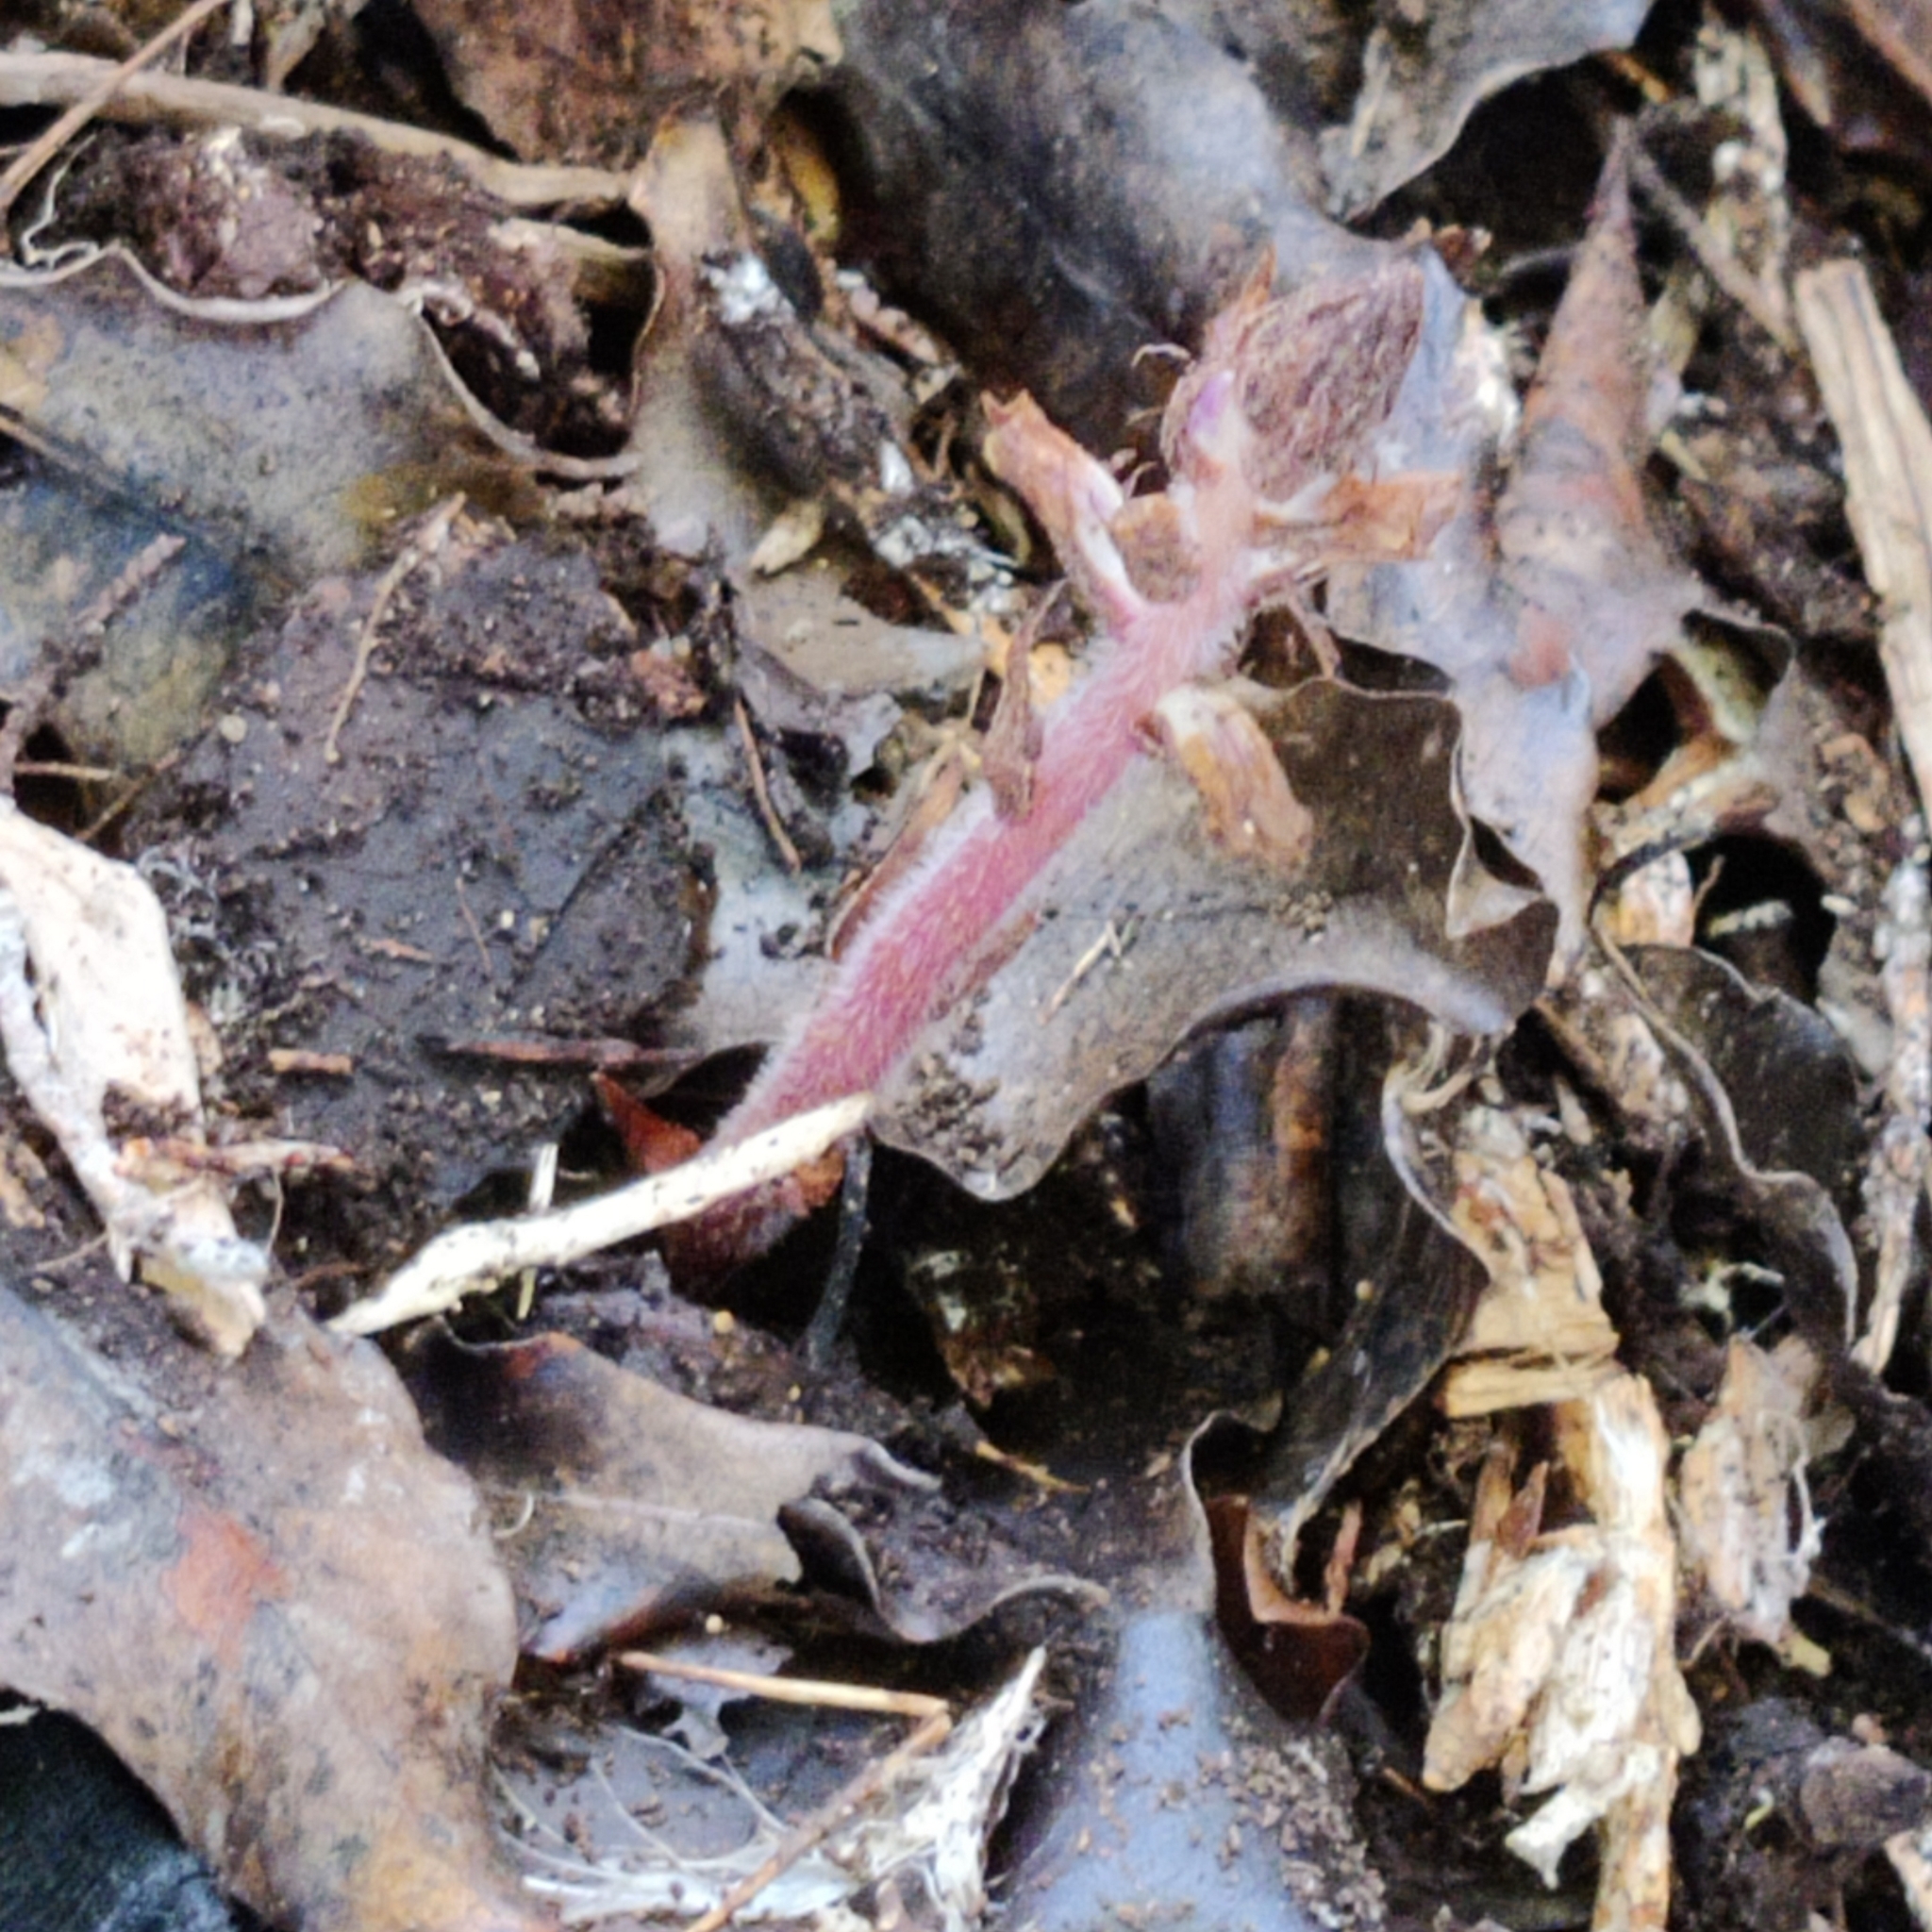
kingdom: Plantae
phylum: Tracheophyta
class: Magnoliopsida
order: Lamiales
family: Orobanchaceae
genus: Orobanche
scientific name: Orobanche minor
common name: Common broomrape
